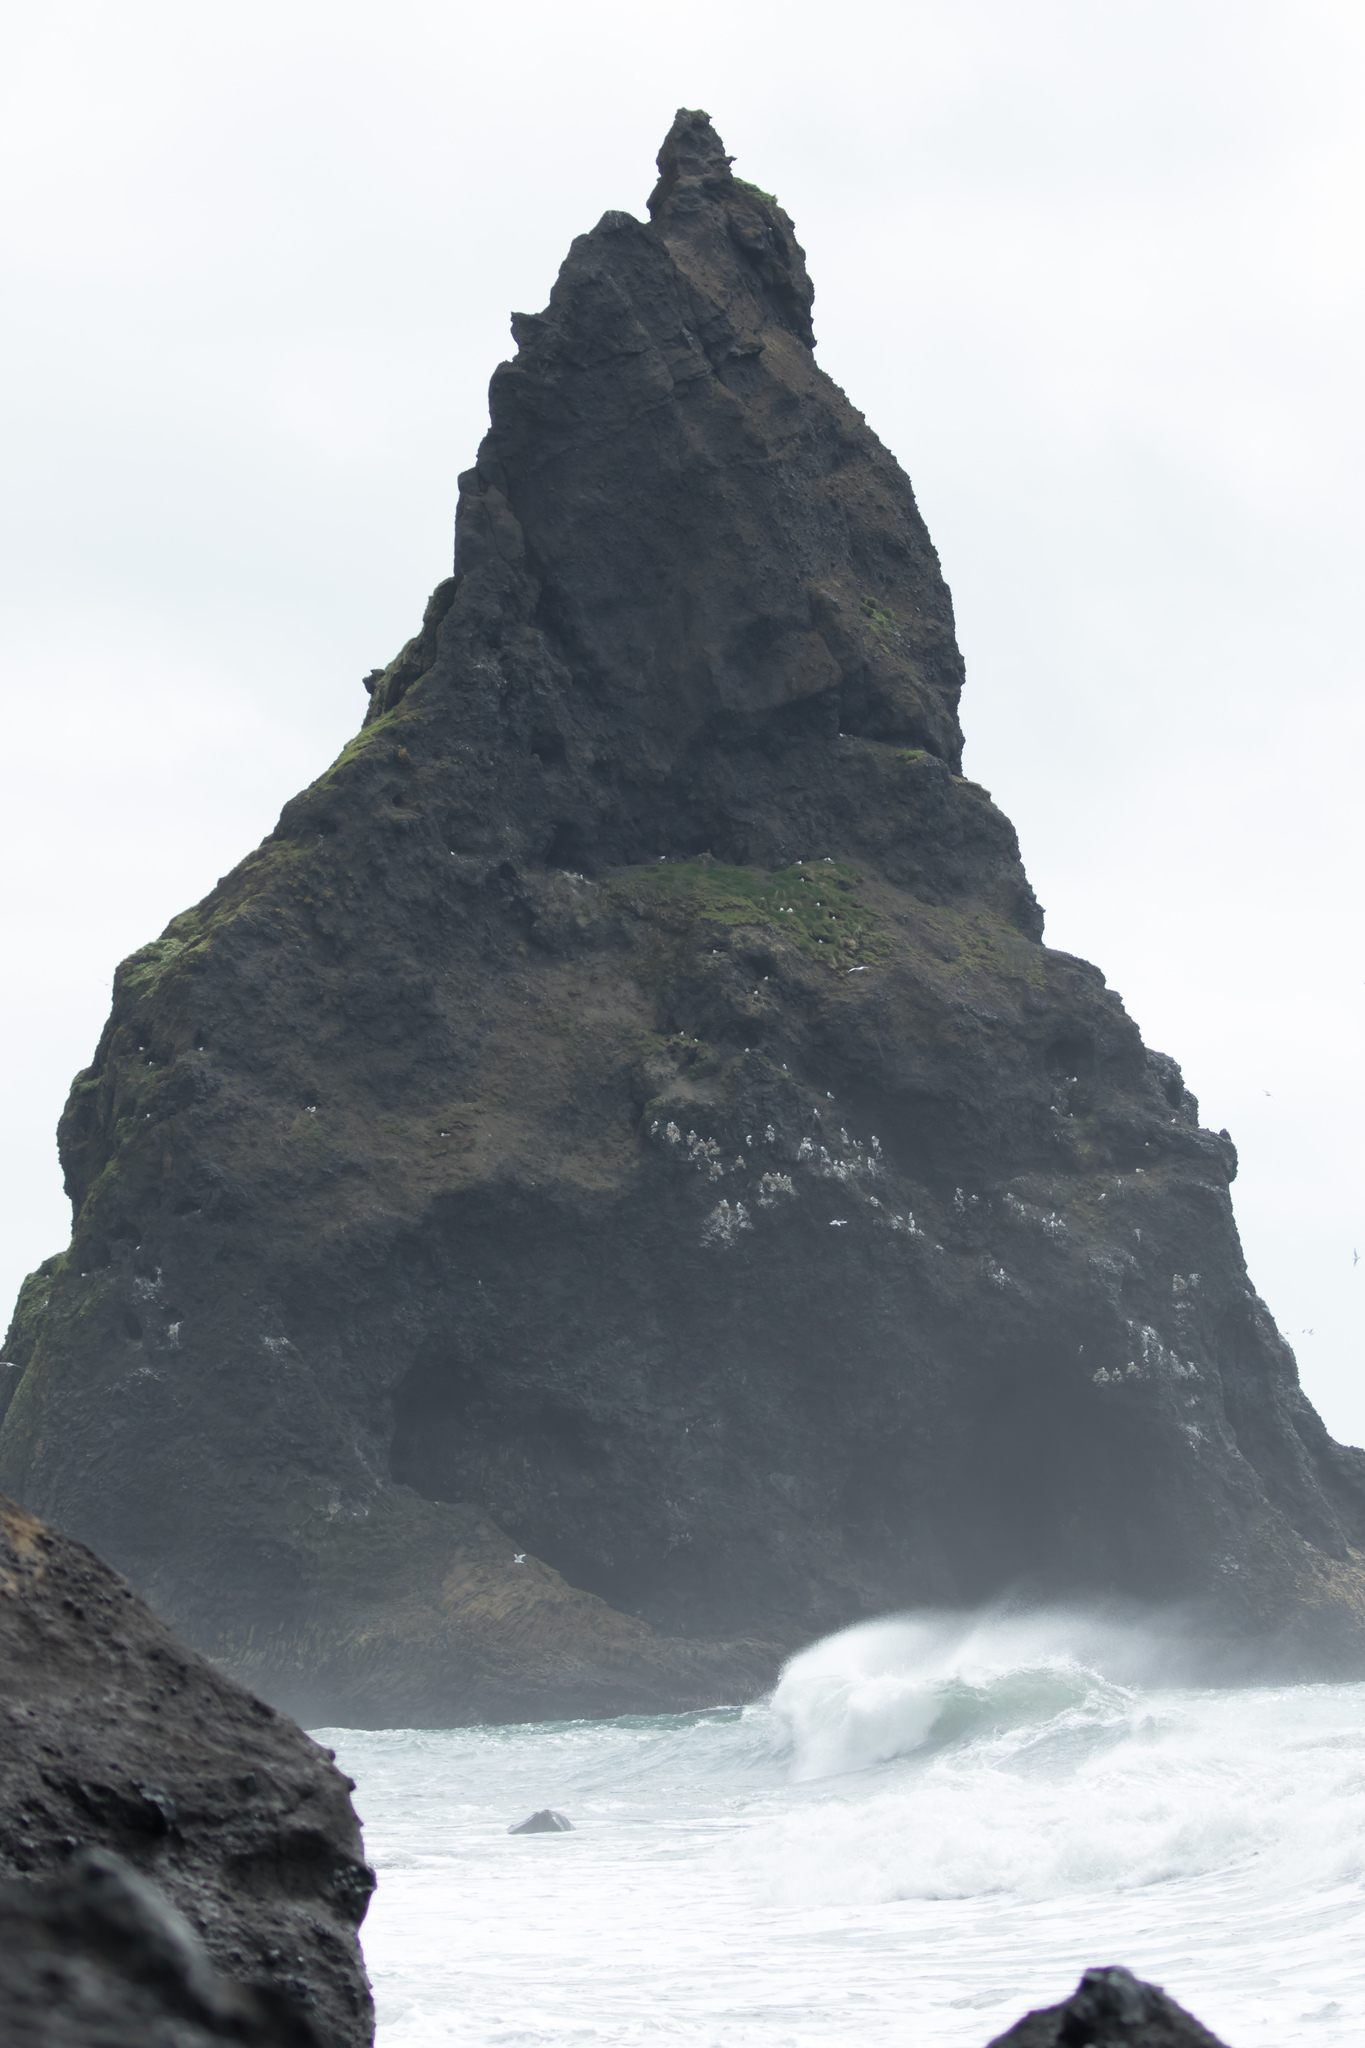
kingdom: Animalia
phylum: Chordata
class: Aves
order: Charadriiformes
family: Laridae
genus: Rissa
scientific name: Rissa tridactyla
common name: Black-legged kittiwake
